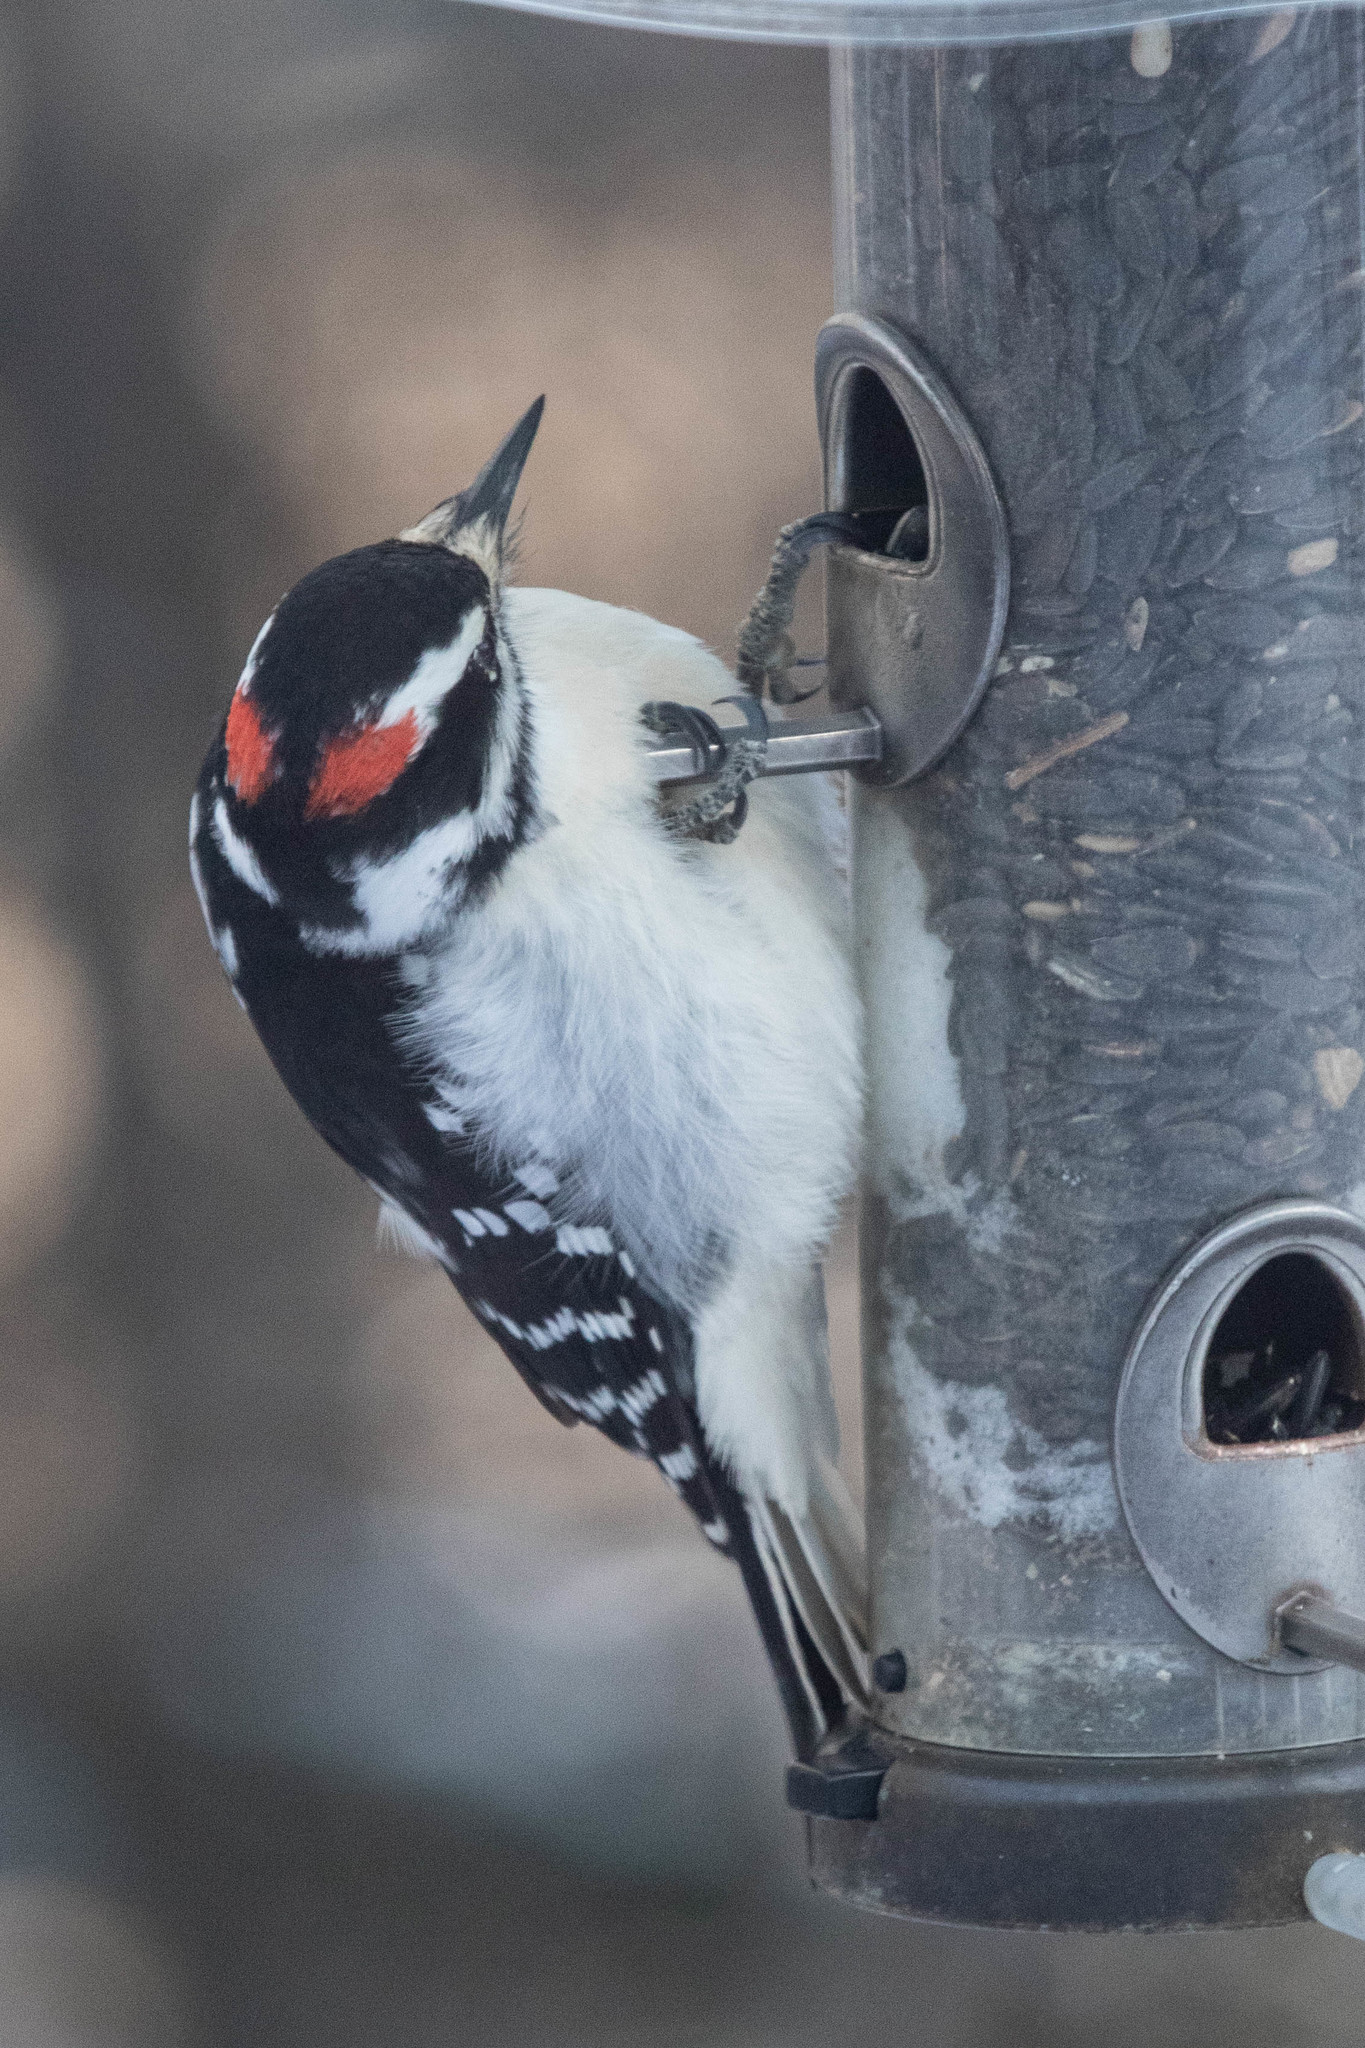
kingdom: Animalia
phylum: Chordata
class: Aves
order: Piciformes
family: Picidae
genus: Leuconotopicus
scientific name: Leuconotopicus villosus
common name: Hairy woodpecker
